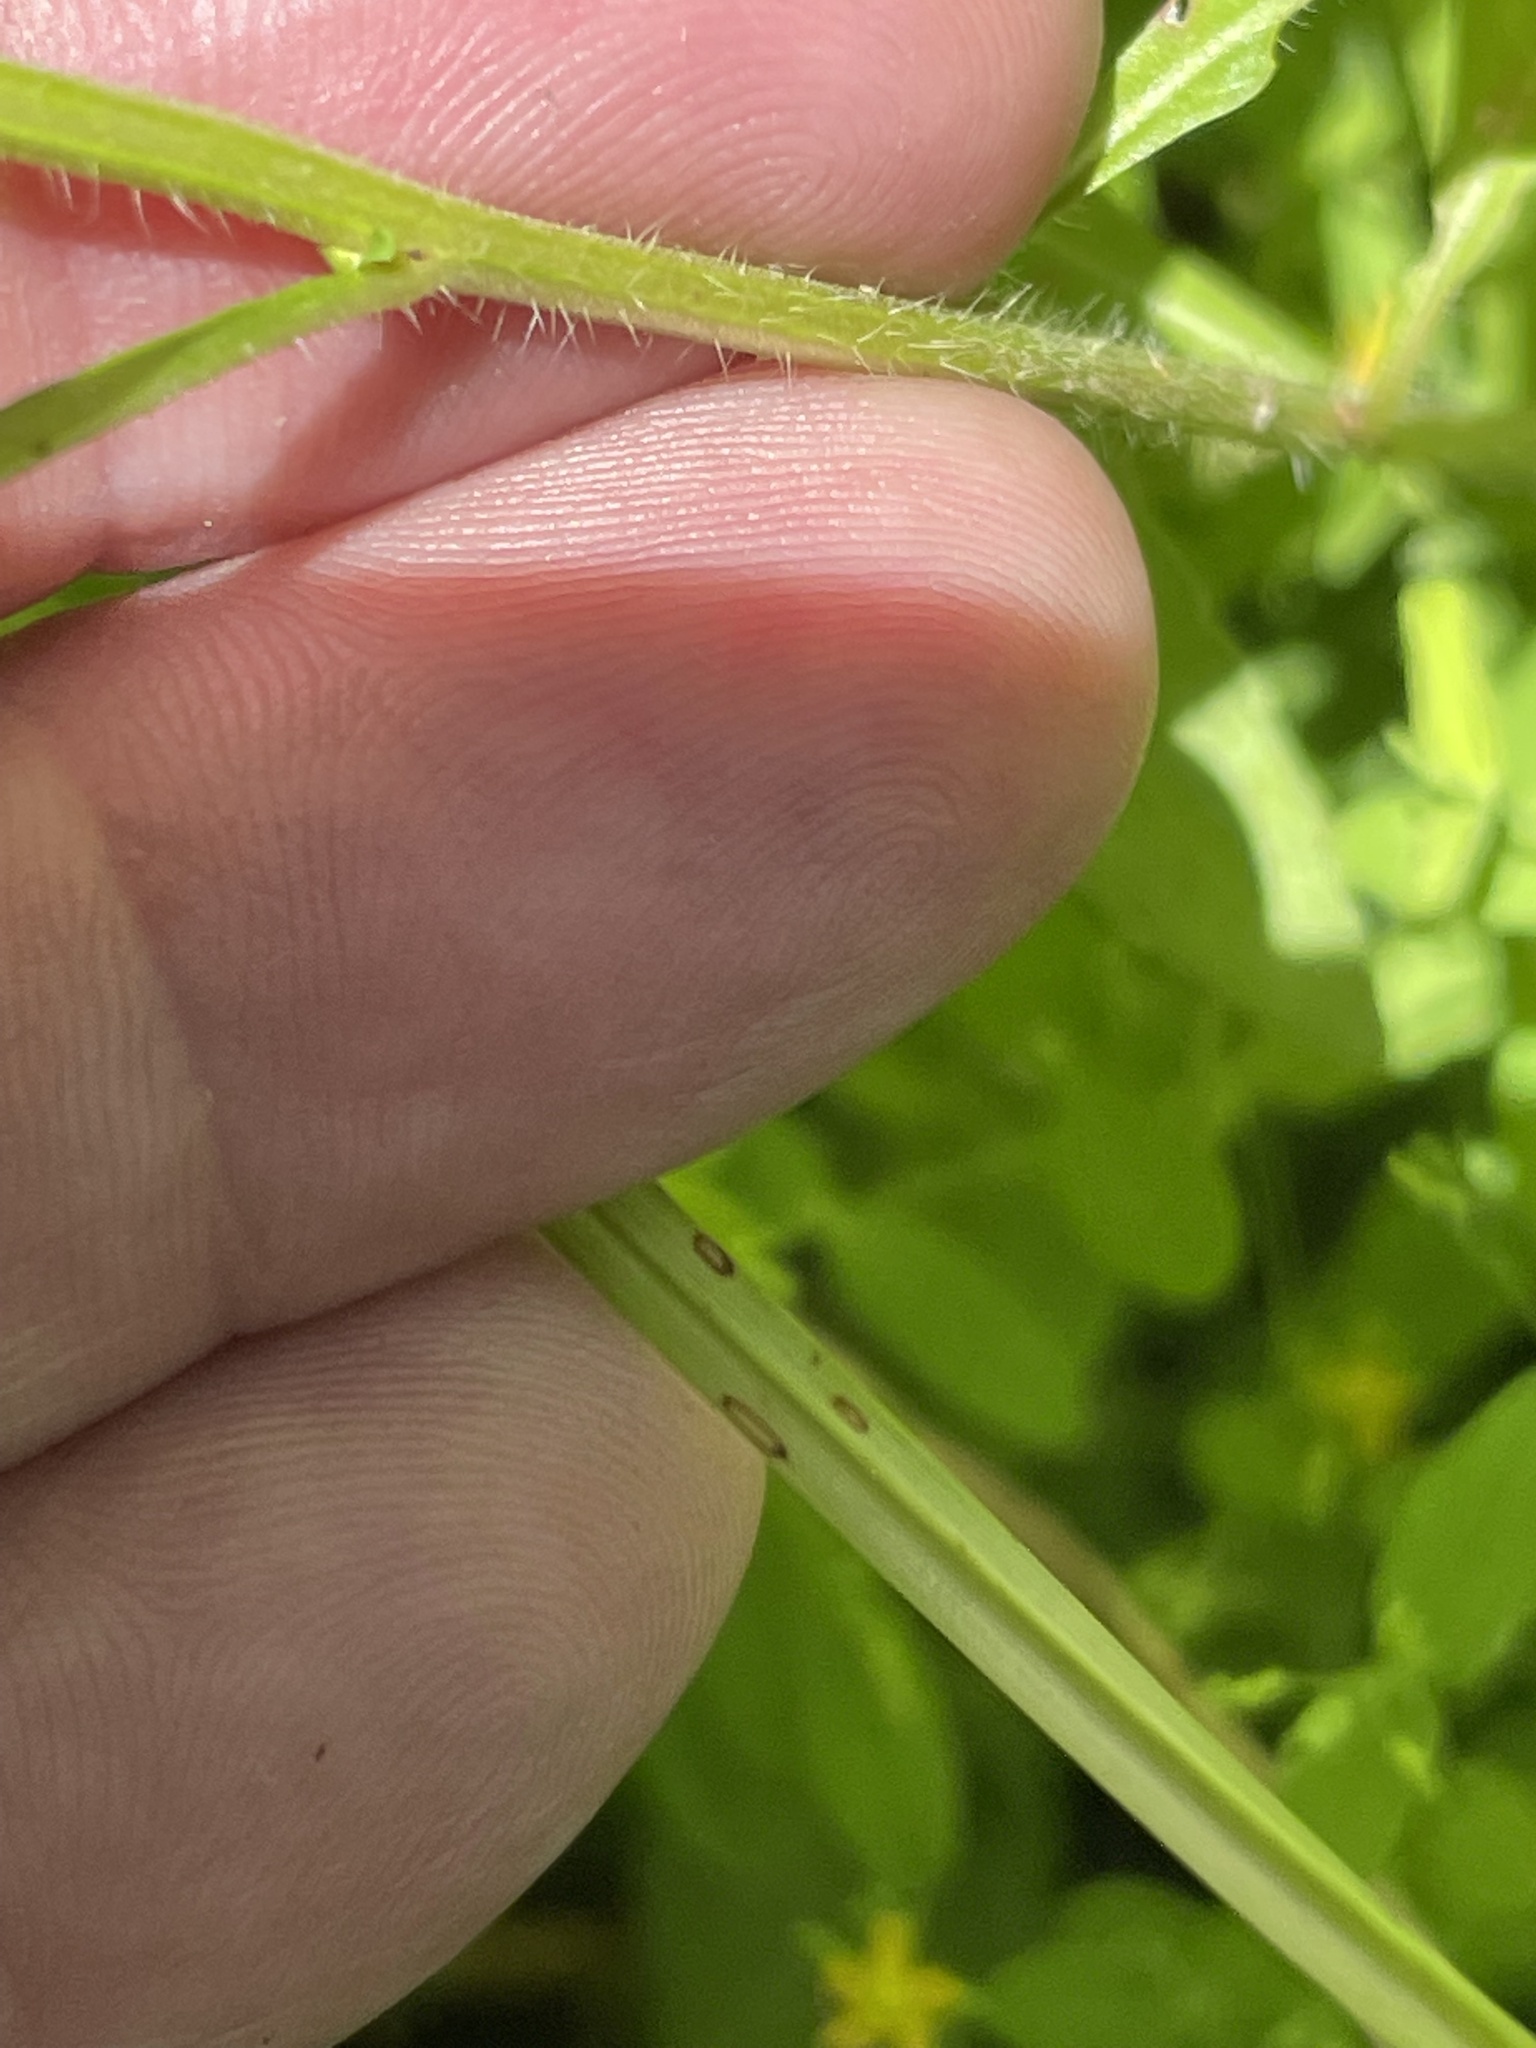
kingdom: Plantae
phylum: Tracheophyta
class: Magnoliopsida
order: Myrtales
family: Onagraceae
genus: Ludwigia
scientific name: Ludwigia leptocarpa
